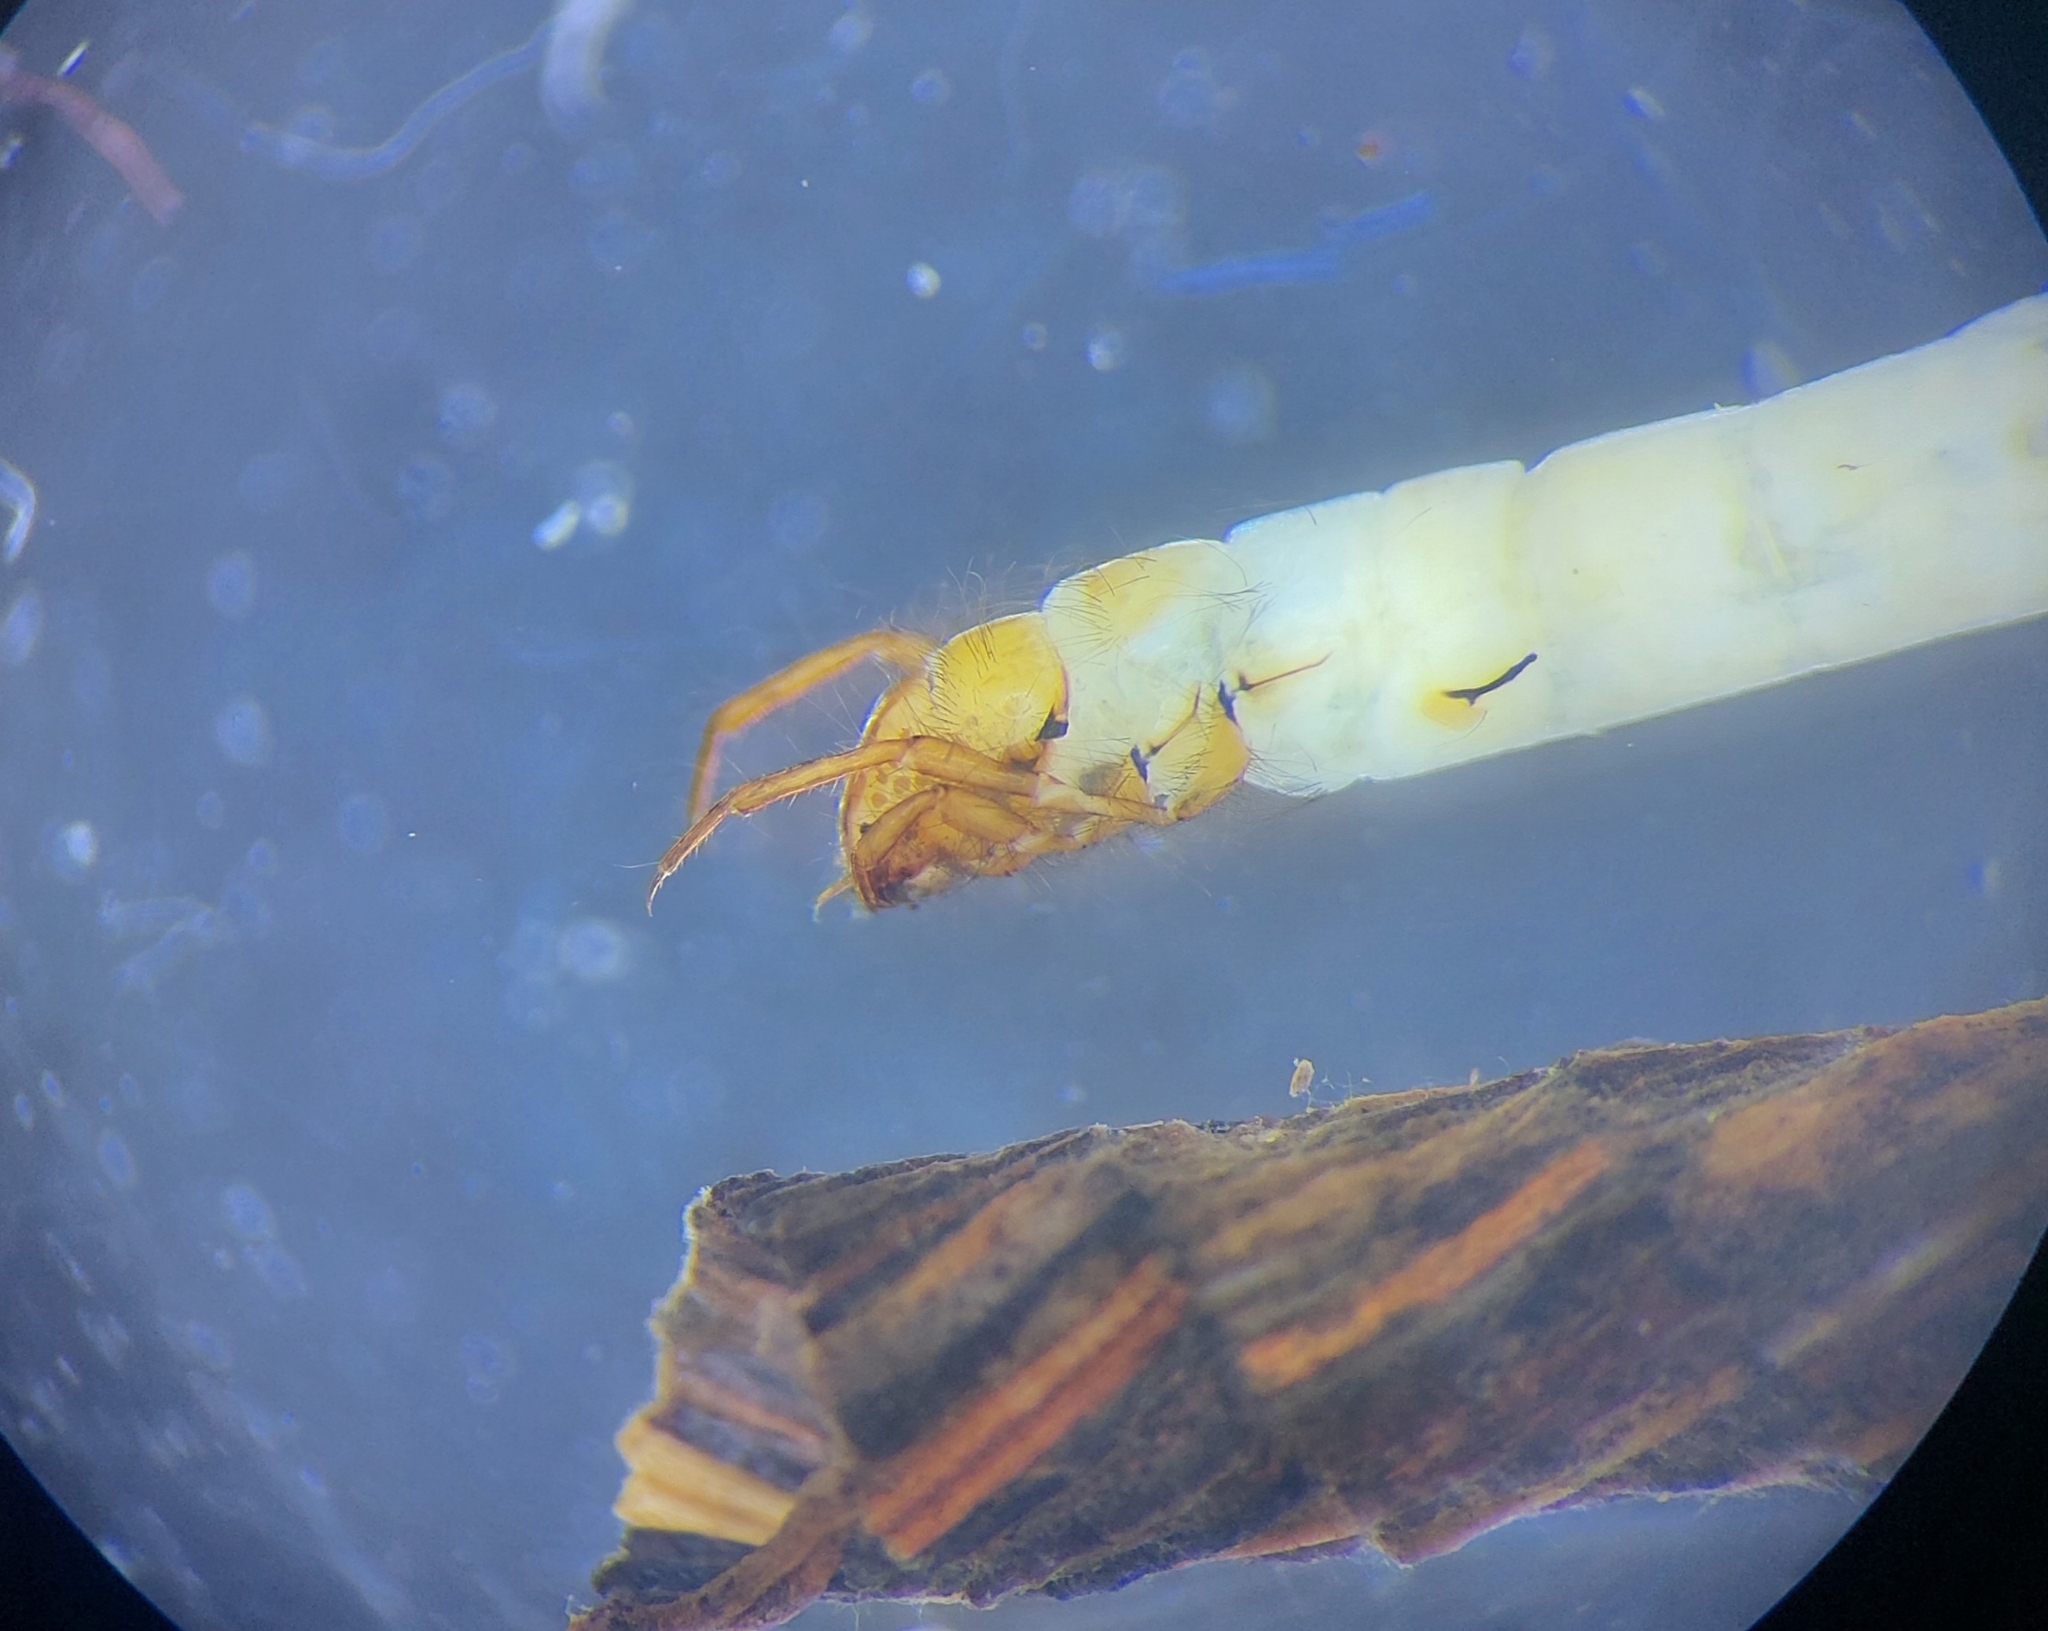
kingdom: Animalia
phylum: Arthropoda
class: Insecta
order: Trichoptera
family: Leptoceridae
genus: Adicella
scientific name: Adicella reducta
